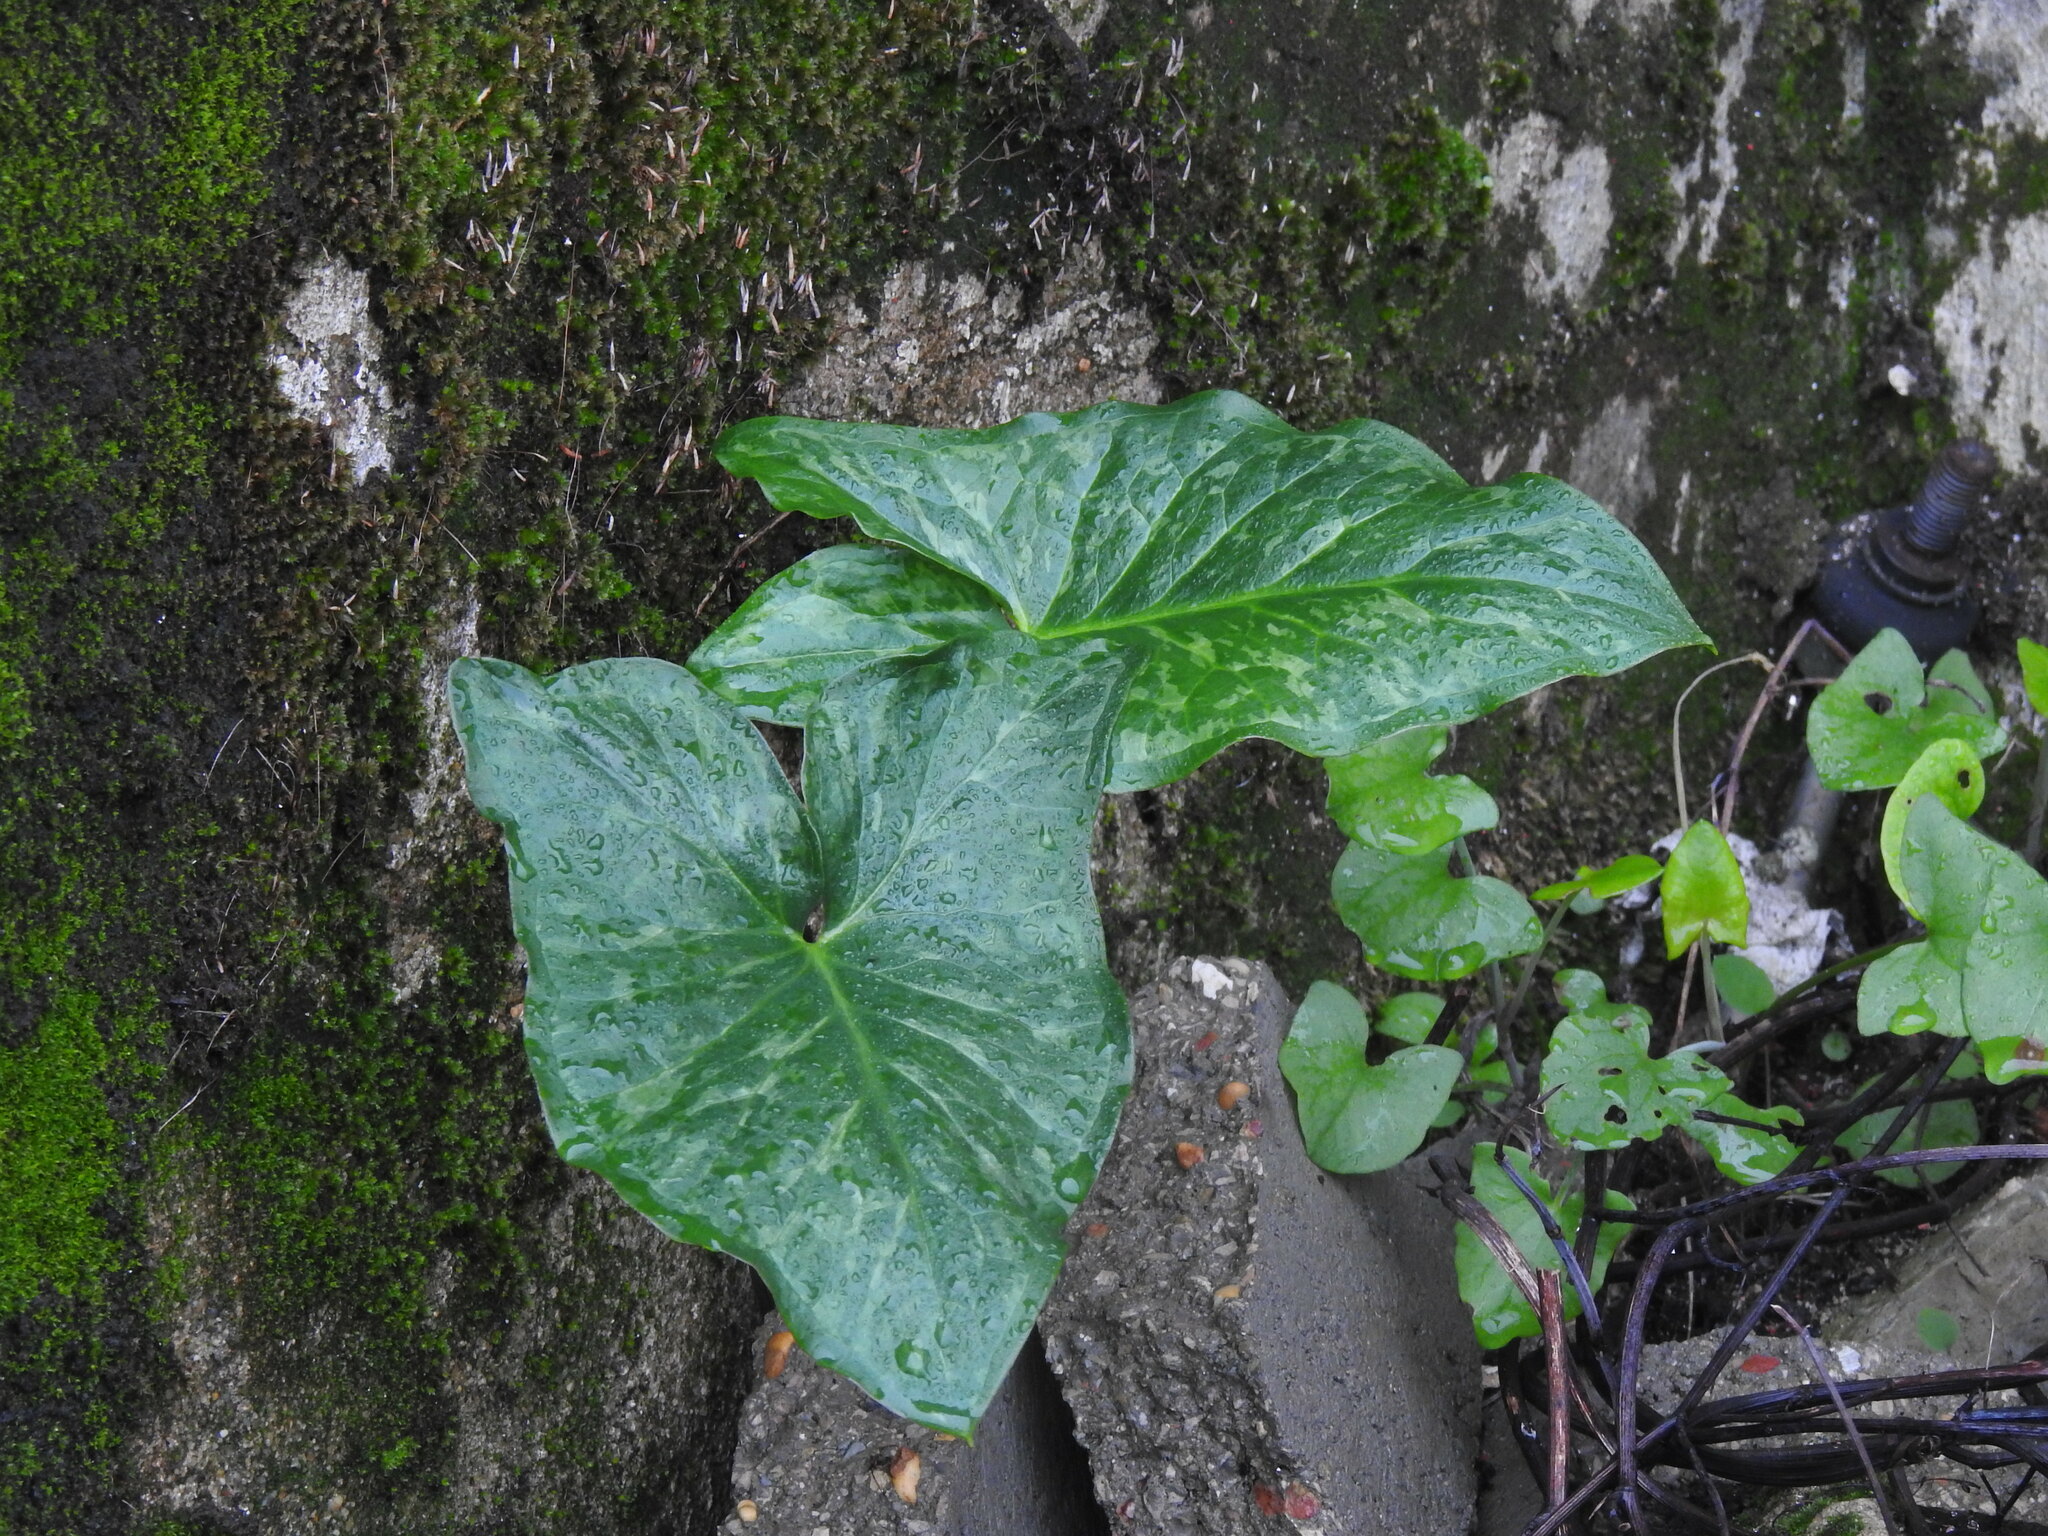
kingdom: Plantae
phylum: Tracheophyta
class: Liliopsida
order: Alismatales
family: Araceae
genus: Arum
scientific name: Arum italicum
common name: Italian lords-and-ladies
